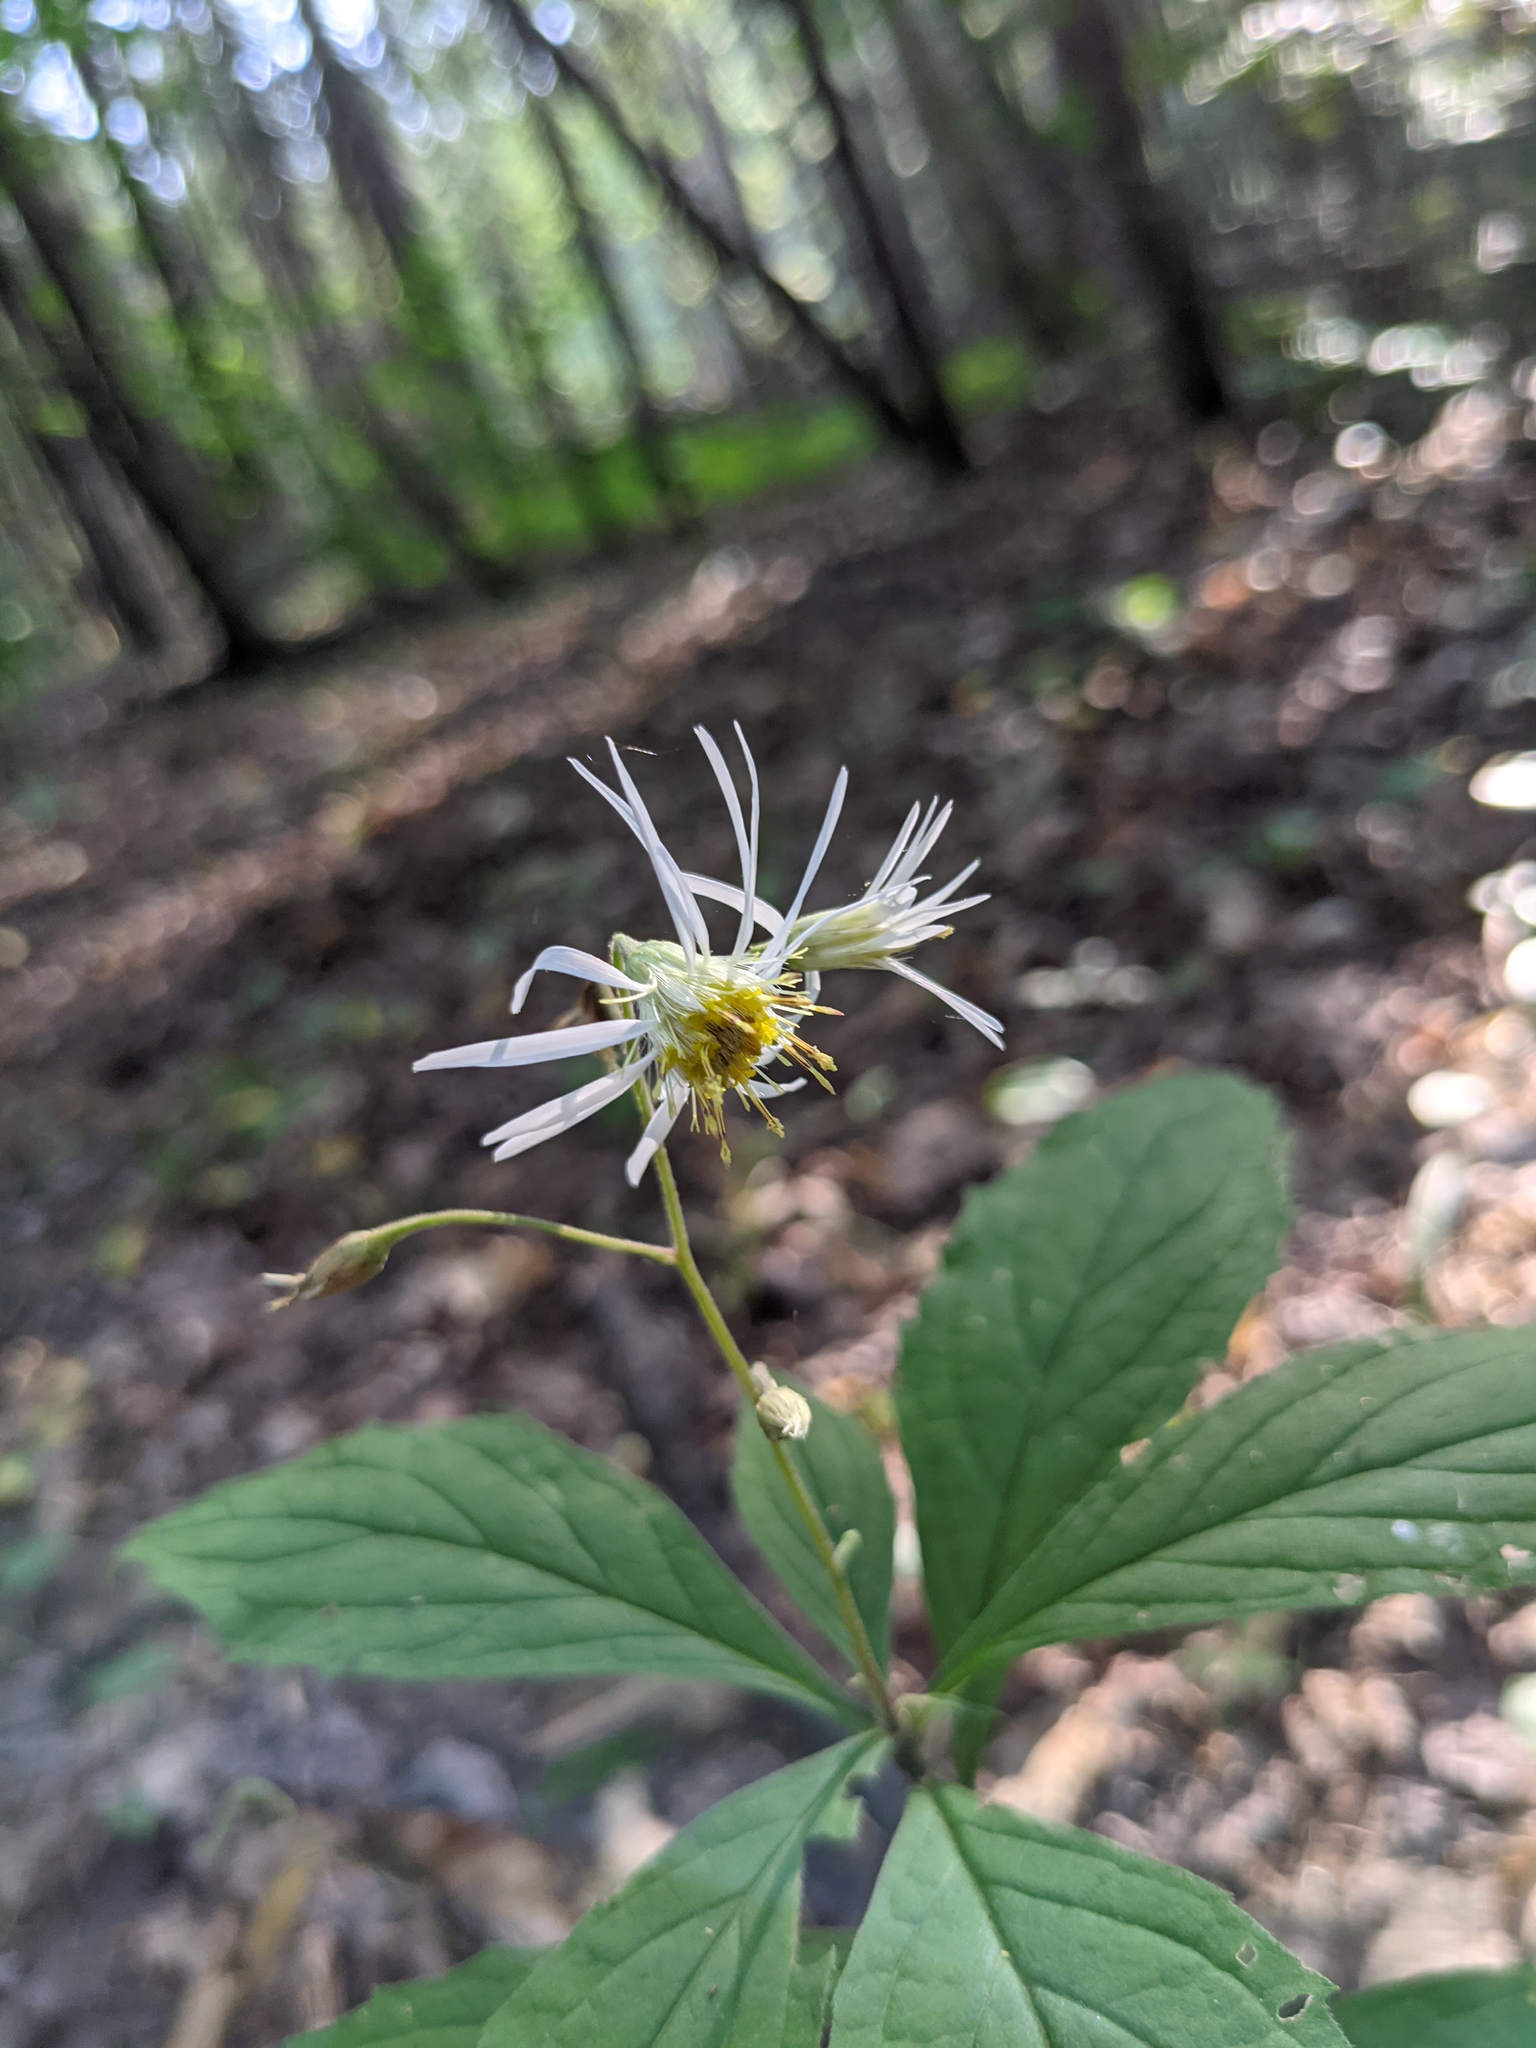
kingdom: Plantae
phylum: Tracheophyta
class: Magnoliopsida
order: Asterales
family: Asteraceae
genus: Oclemena
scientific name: Oclemena acuminata
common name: Mountain aster
